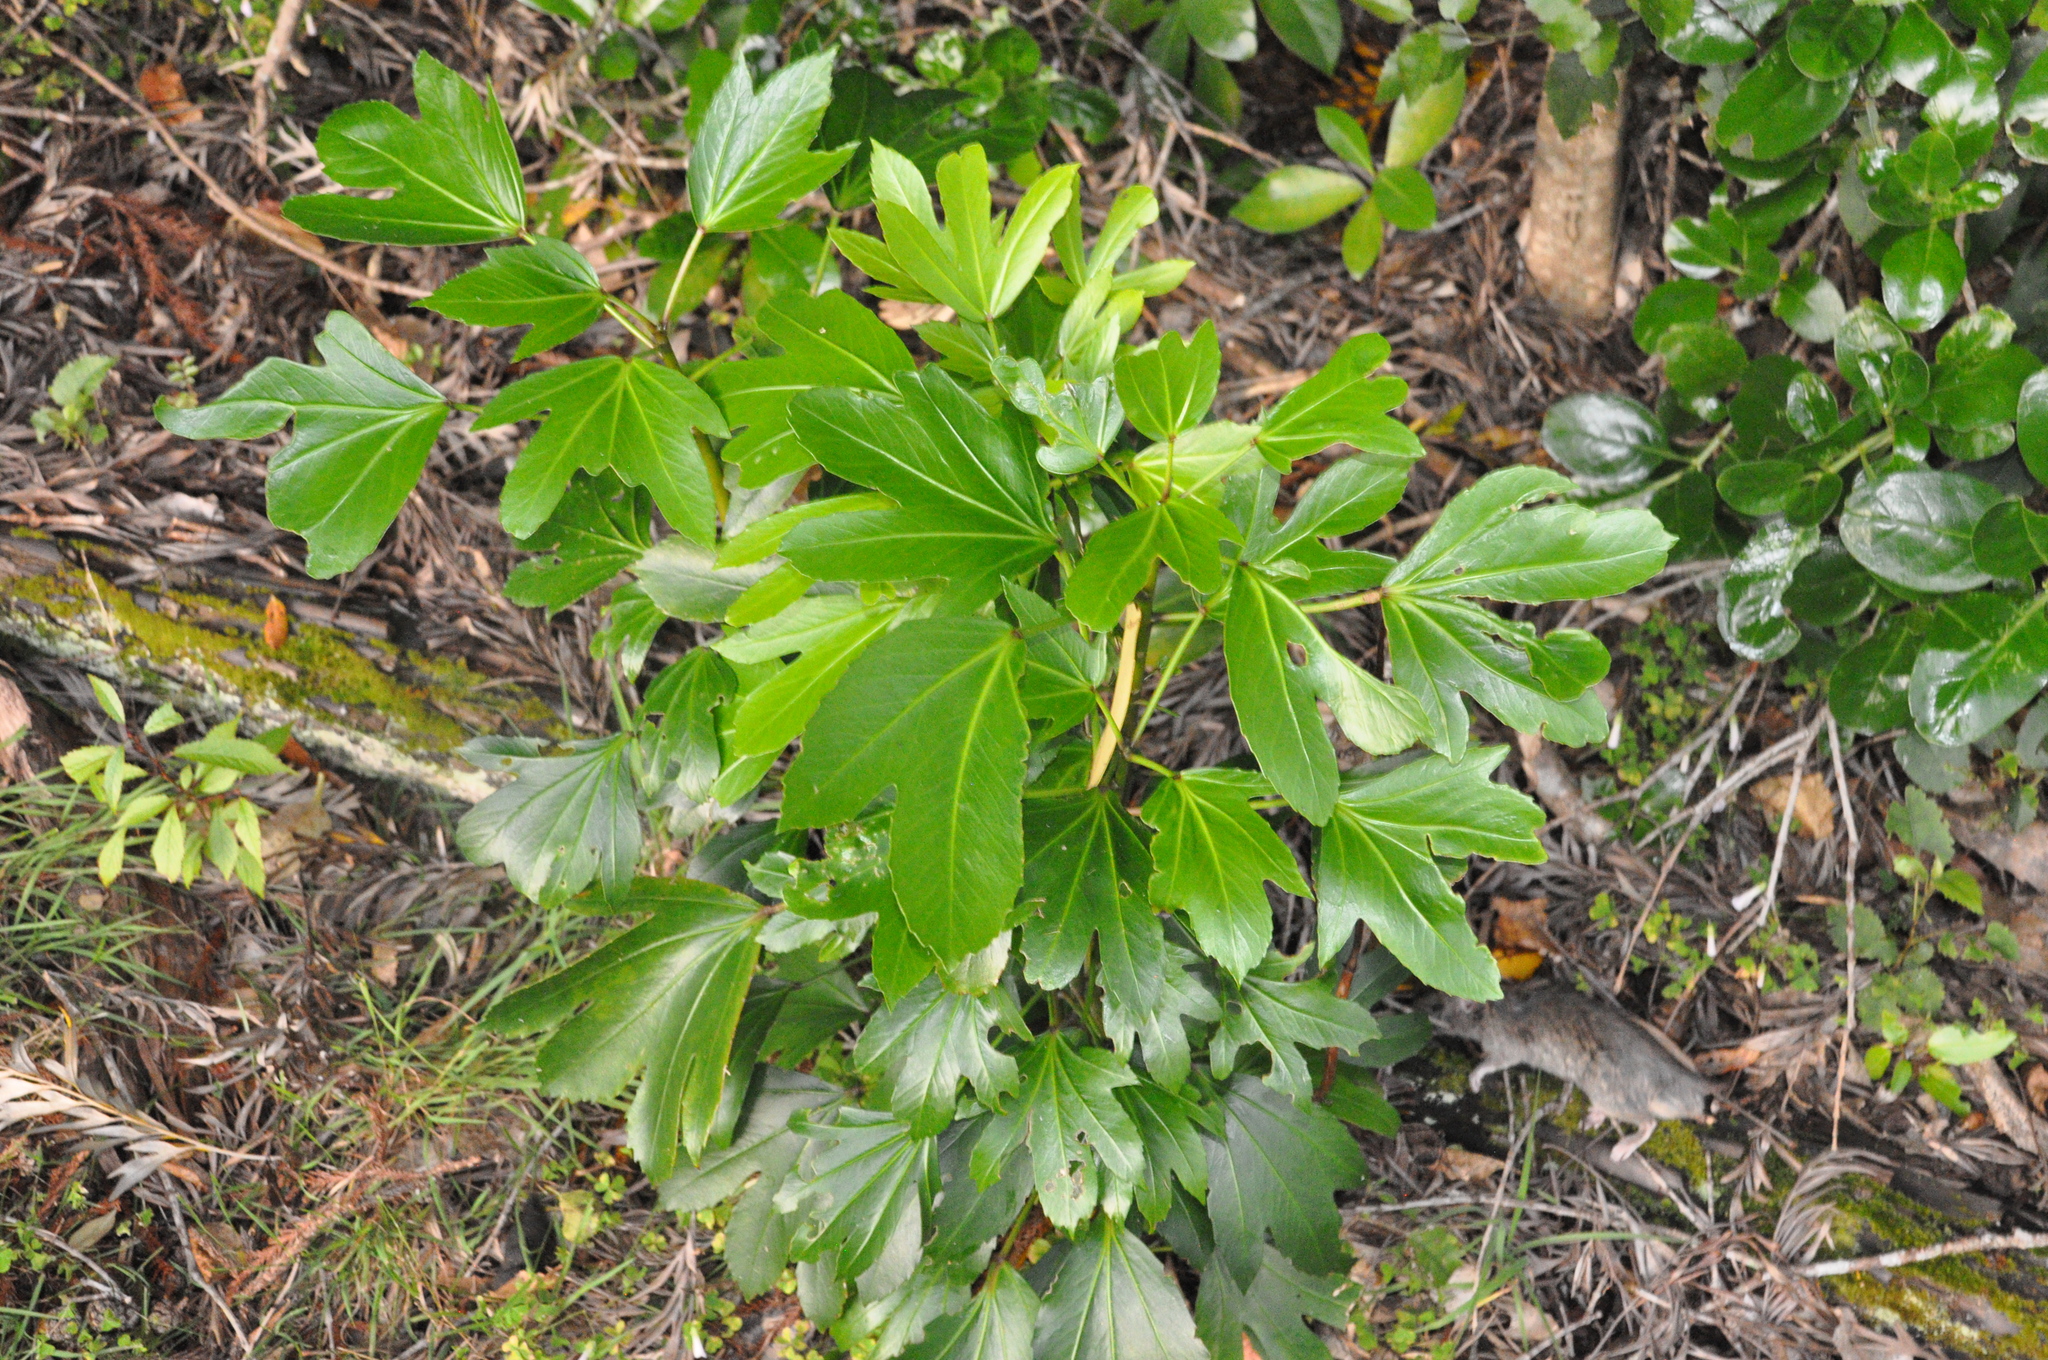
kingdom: Plantae
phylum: Tracheophyta
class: Magnoliopsida
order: Apiales
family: Araliaceae
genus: Pseudopanax
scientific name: Pseudopanax lessonii
